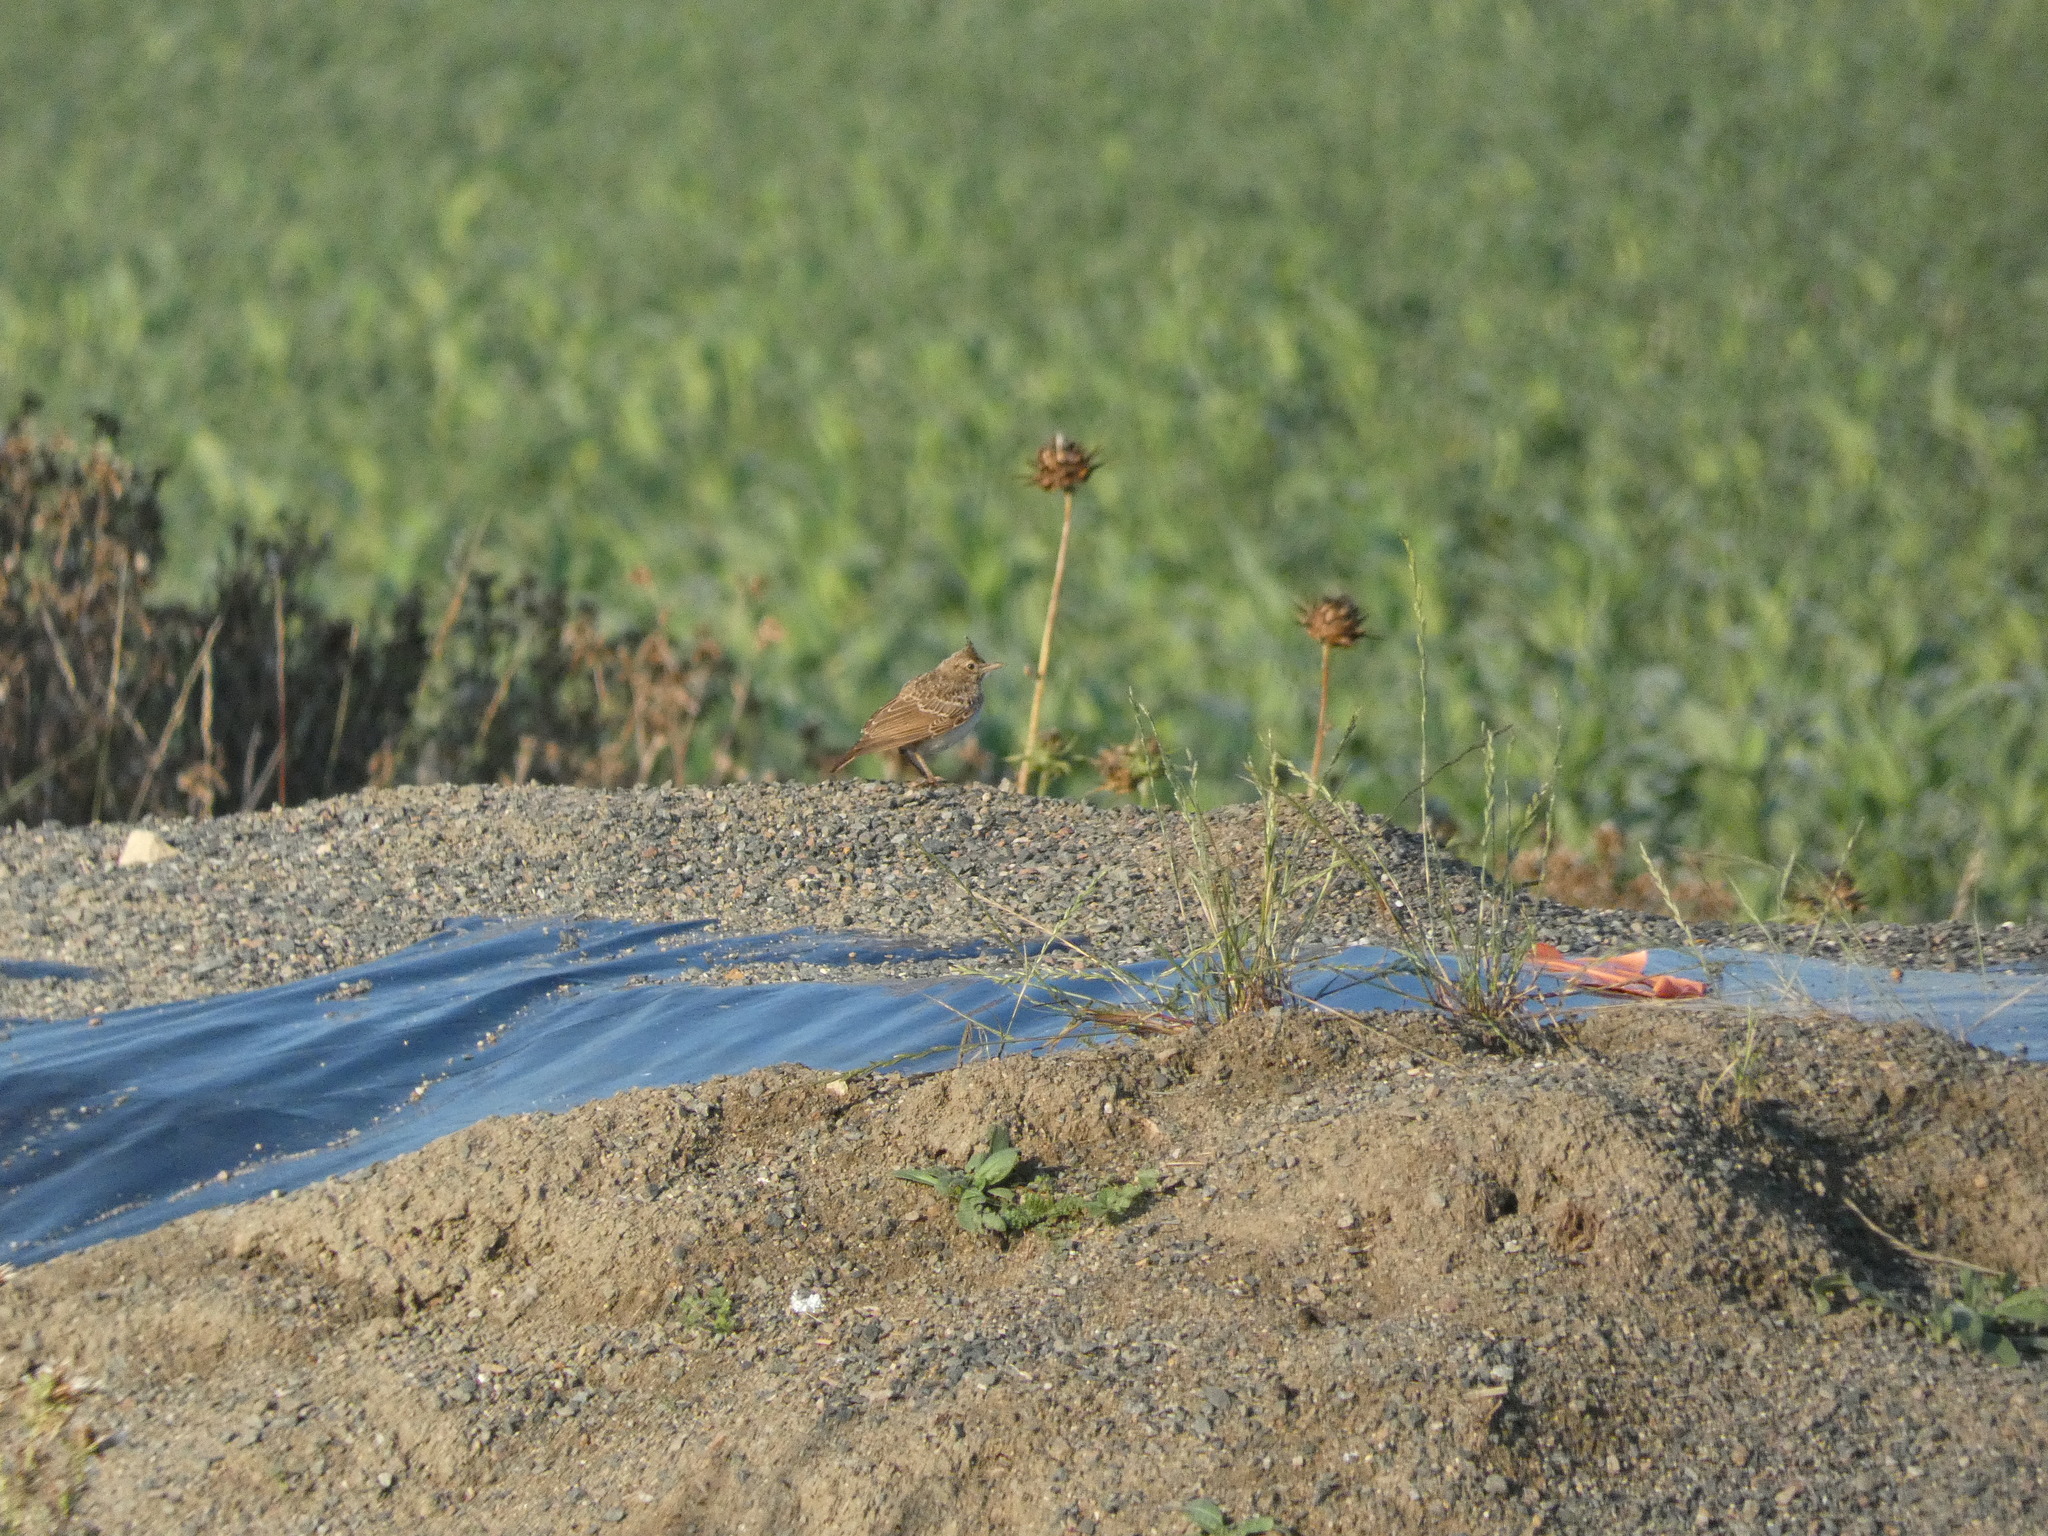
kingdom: Animalia
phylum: Chordata
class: Aves
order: Passeriformes
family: Alaudidae
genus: Alauda
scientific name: Alauda arvensis
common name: Eurasian skylark
